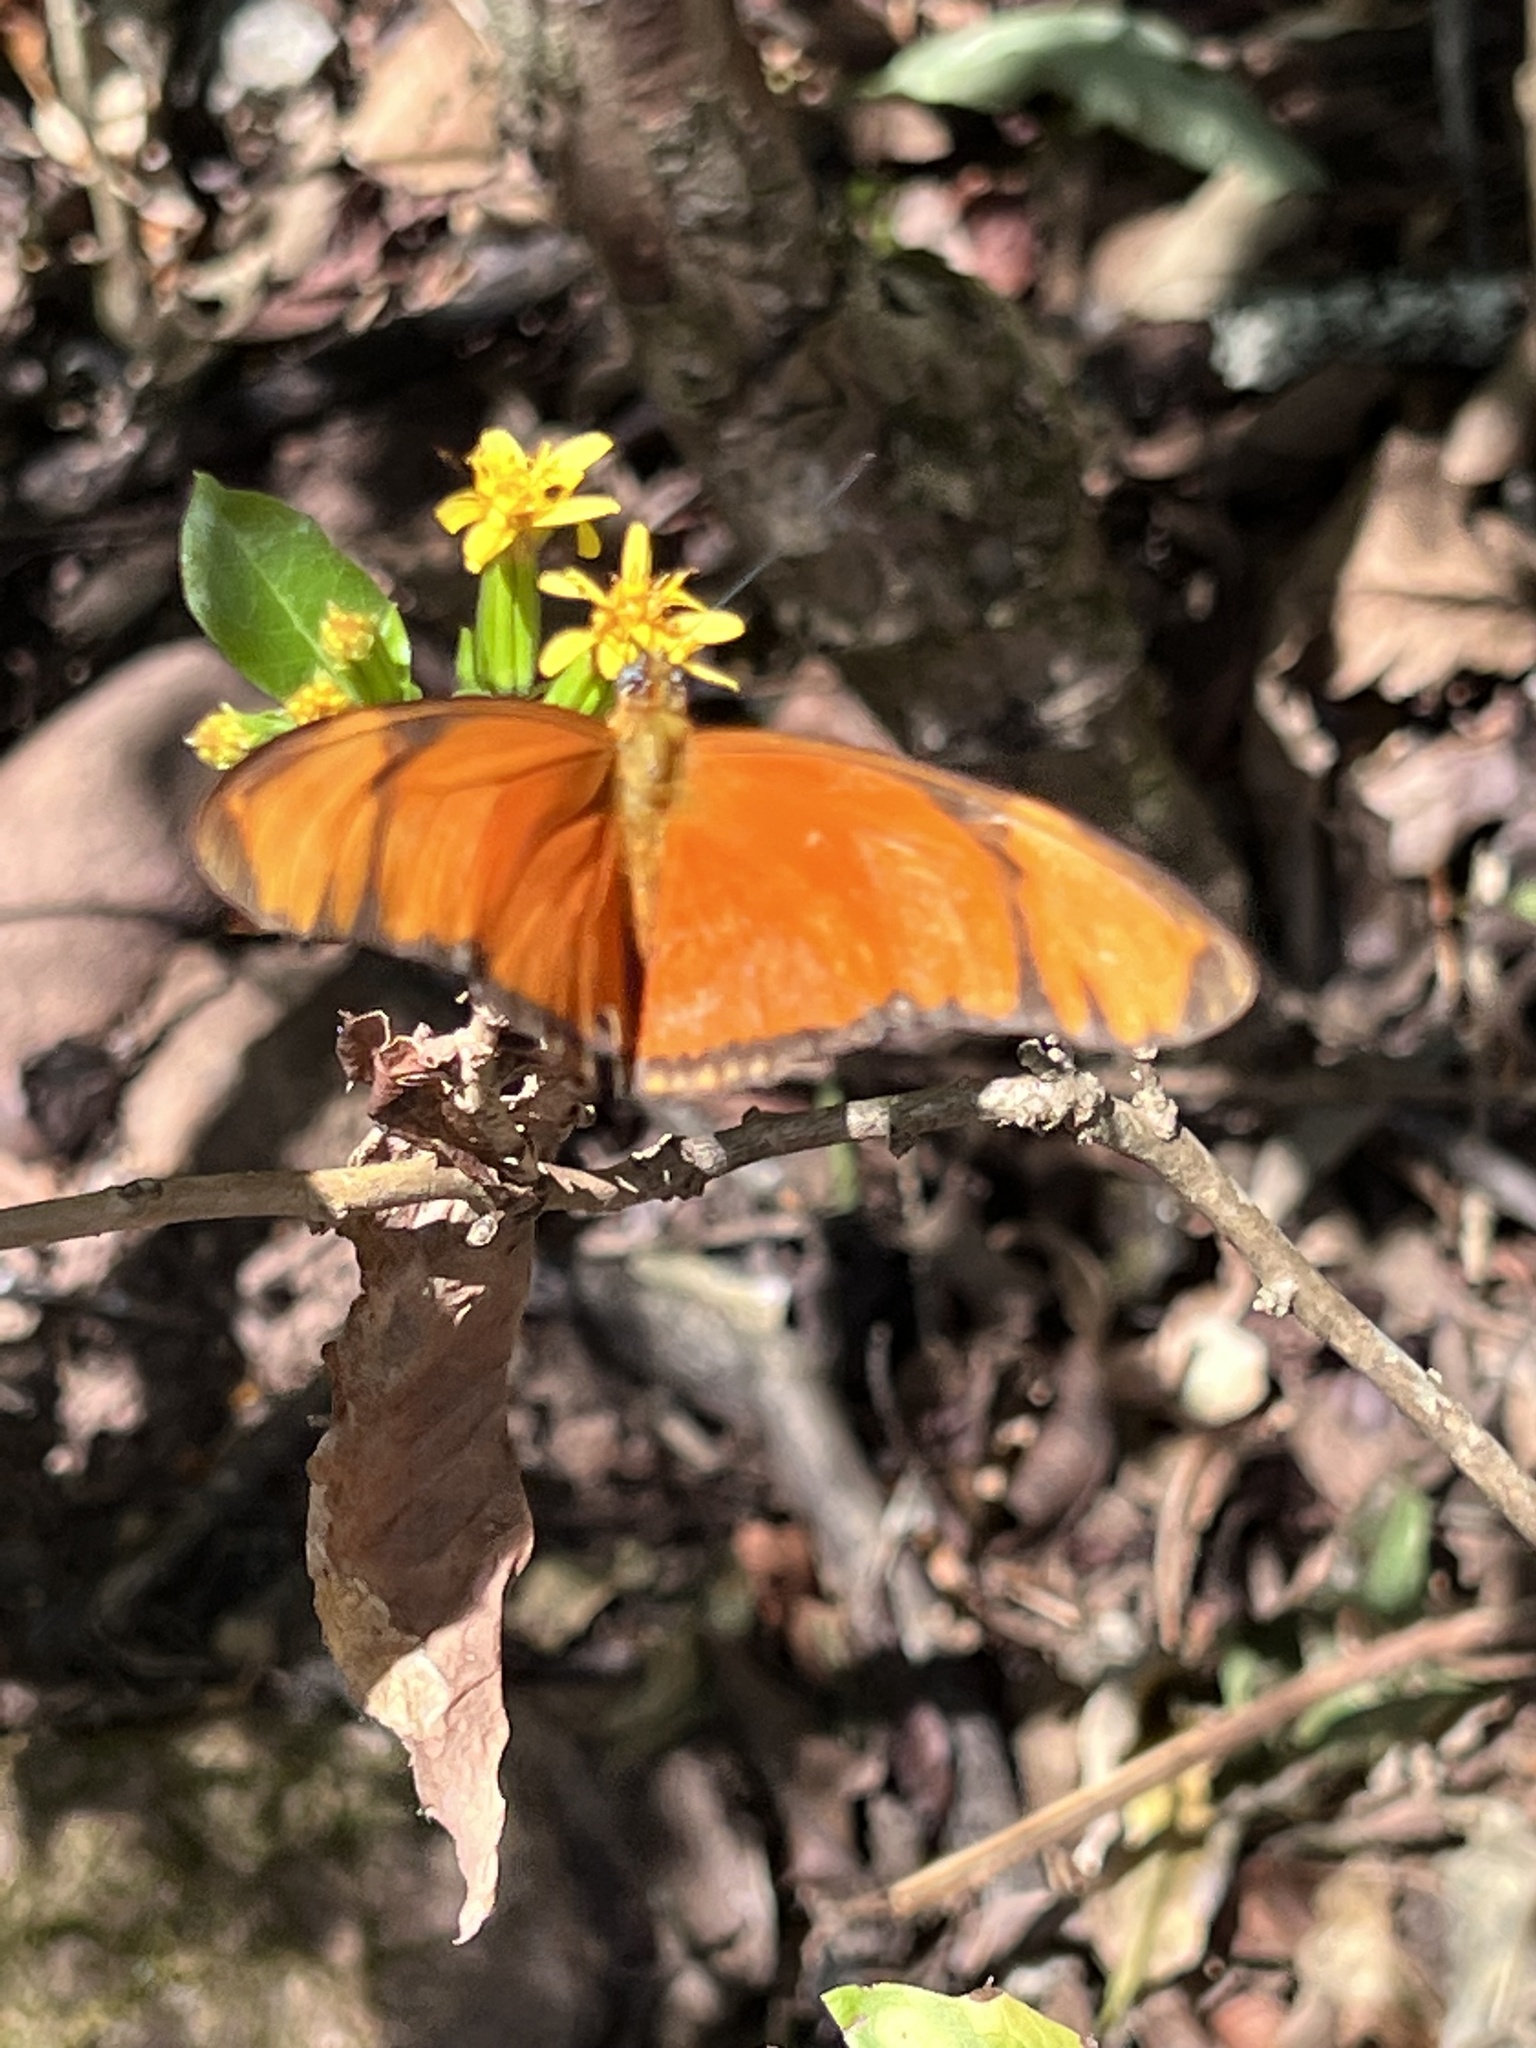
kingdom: Animalia
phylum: Arthropoda
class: Insecta
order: Lepidoptera
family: Nymphalidae
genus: Dryas
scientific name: Dryas iulia
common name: Flambeau
